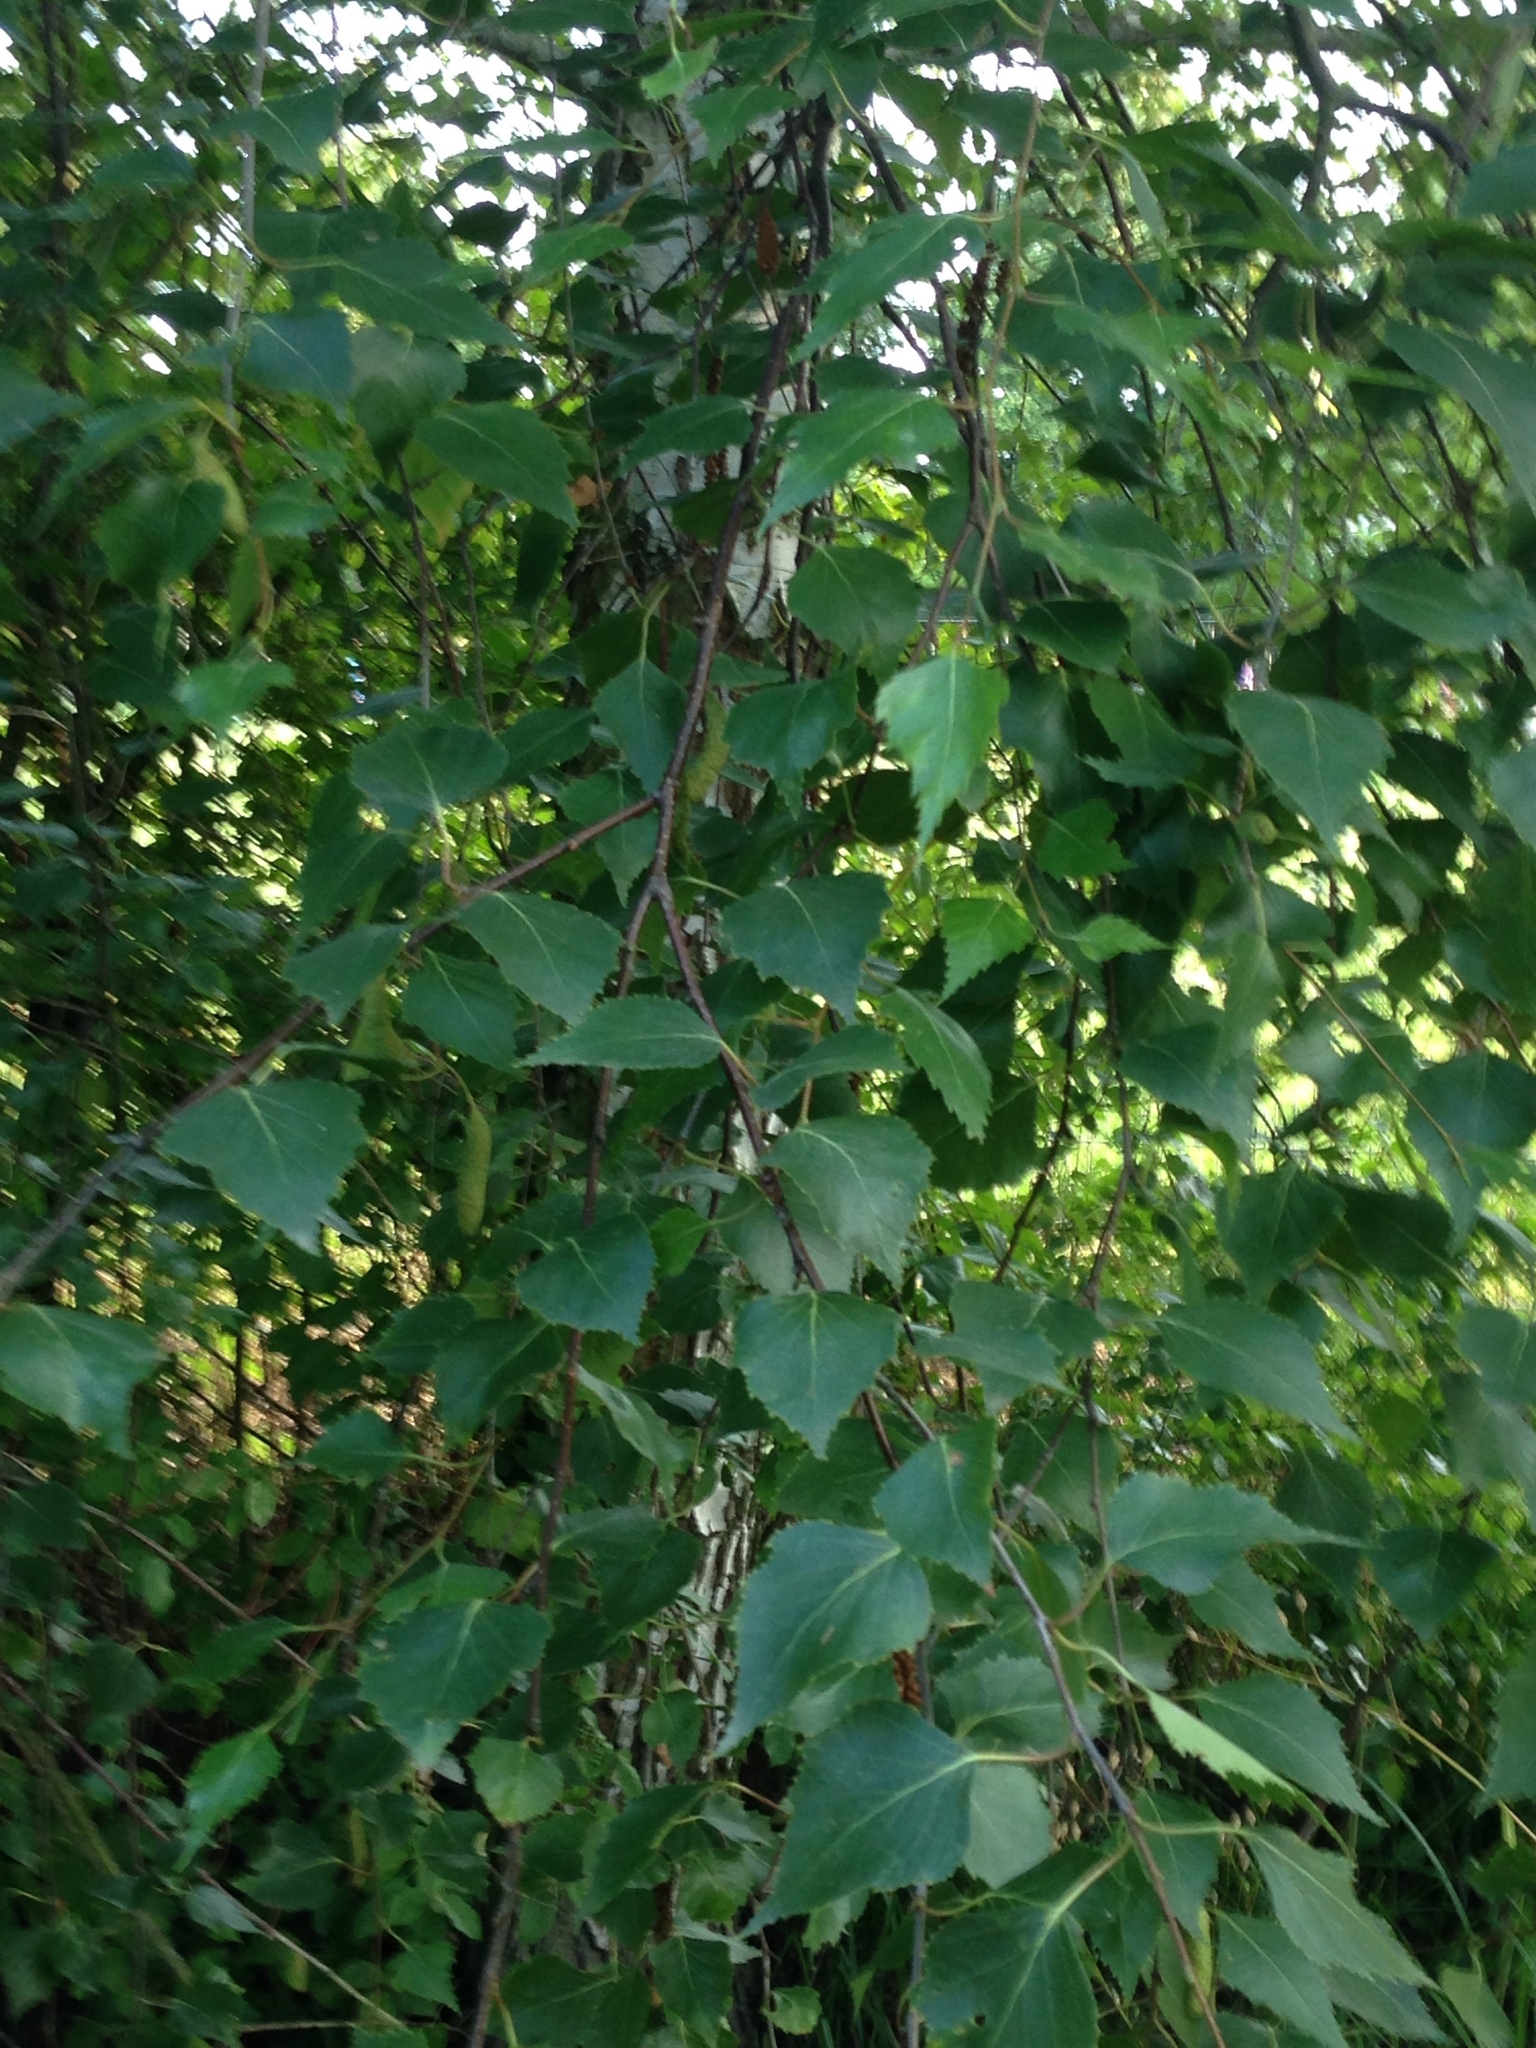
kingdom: Plantae
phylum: Tracheophyta
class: Magnoliopsida
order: Fagales
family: Betulaceae
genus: Betula
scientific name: Betula pendula
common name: Silver birch
